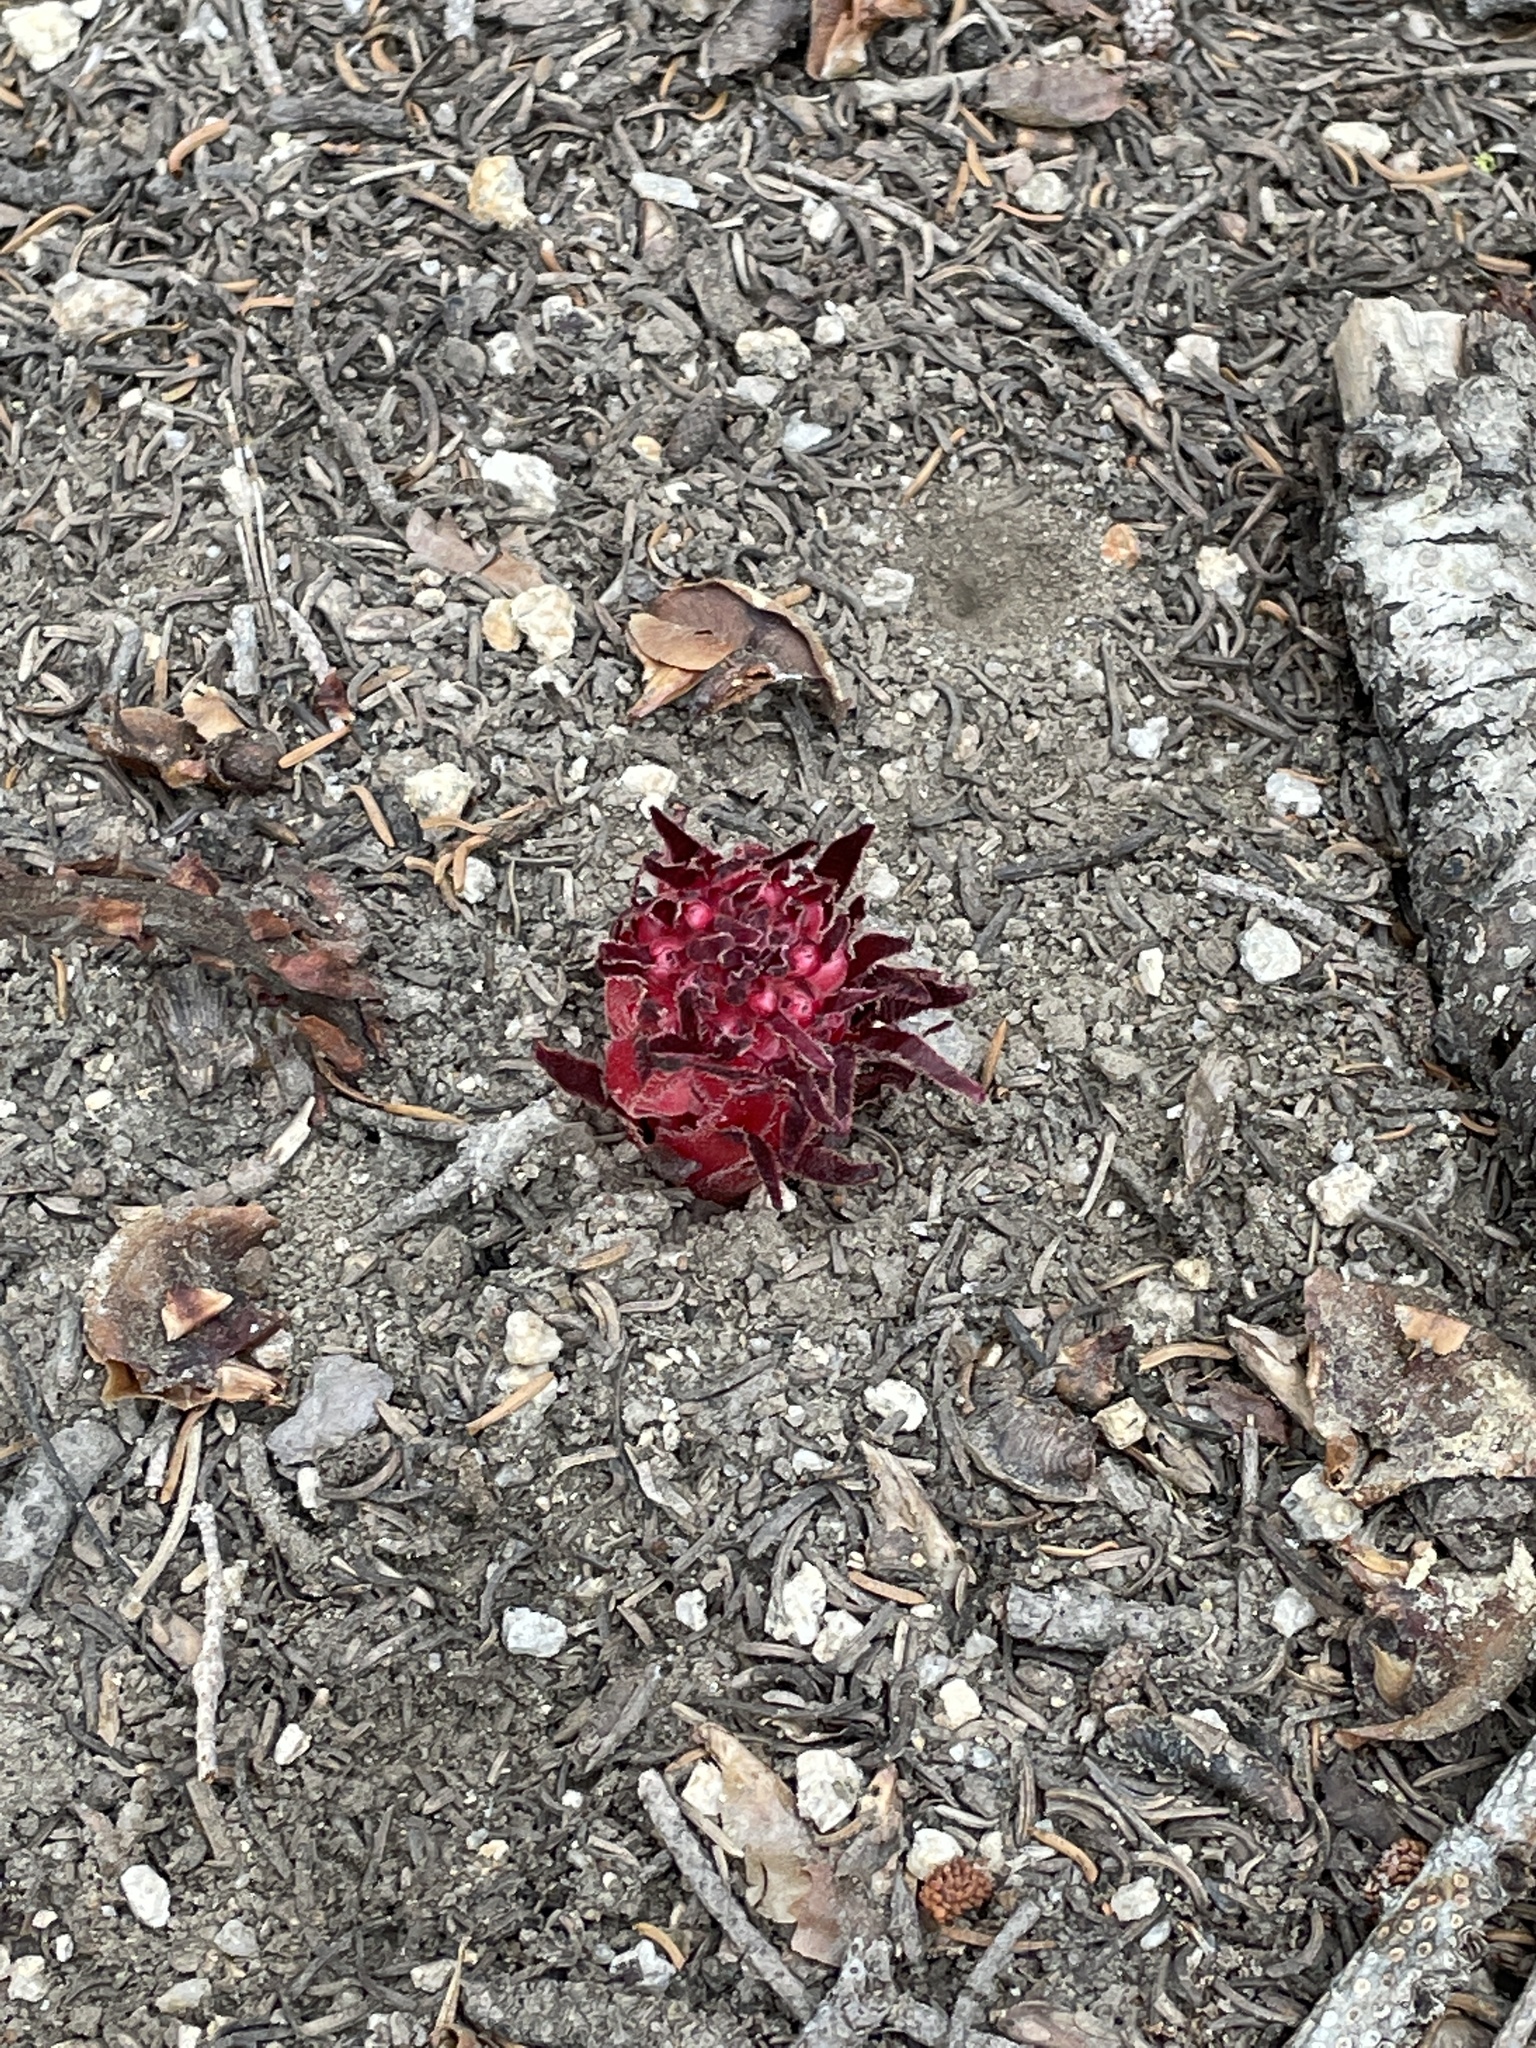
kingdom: Plantae
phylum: Tracheophyta
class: Magnoliopsida
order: Ericales
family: Ericaceae
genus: Sarcodes
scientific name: Sarcodes sanguinea
